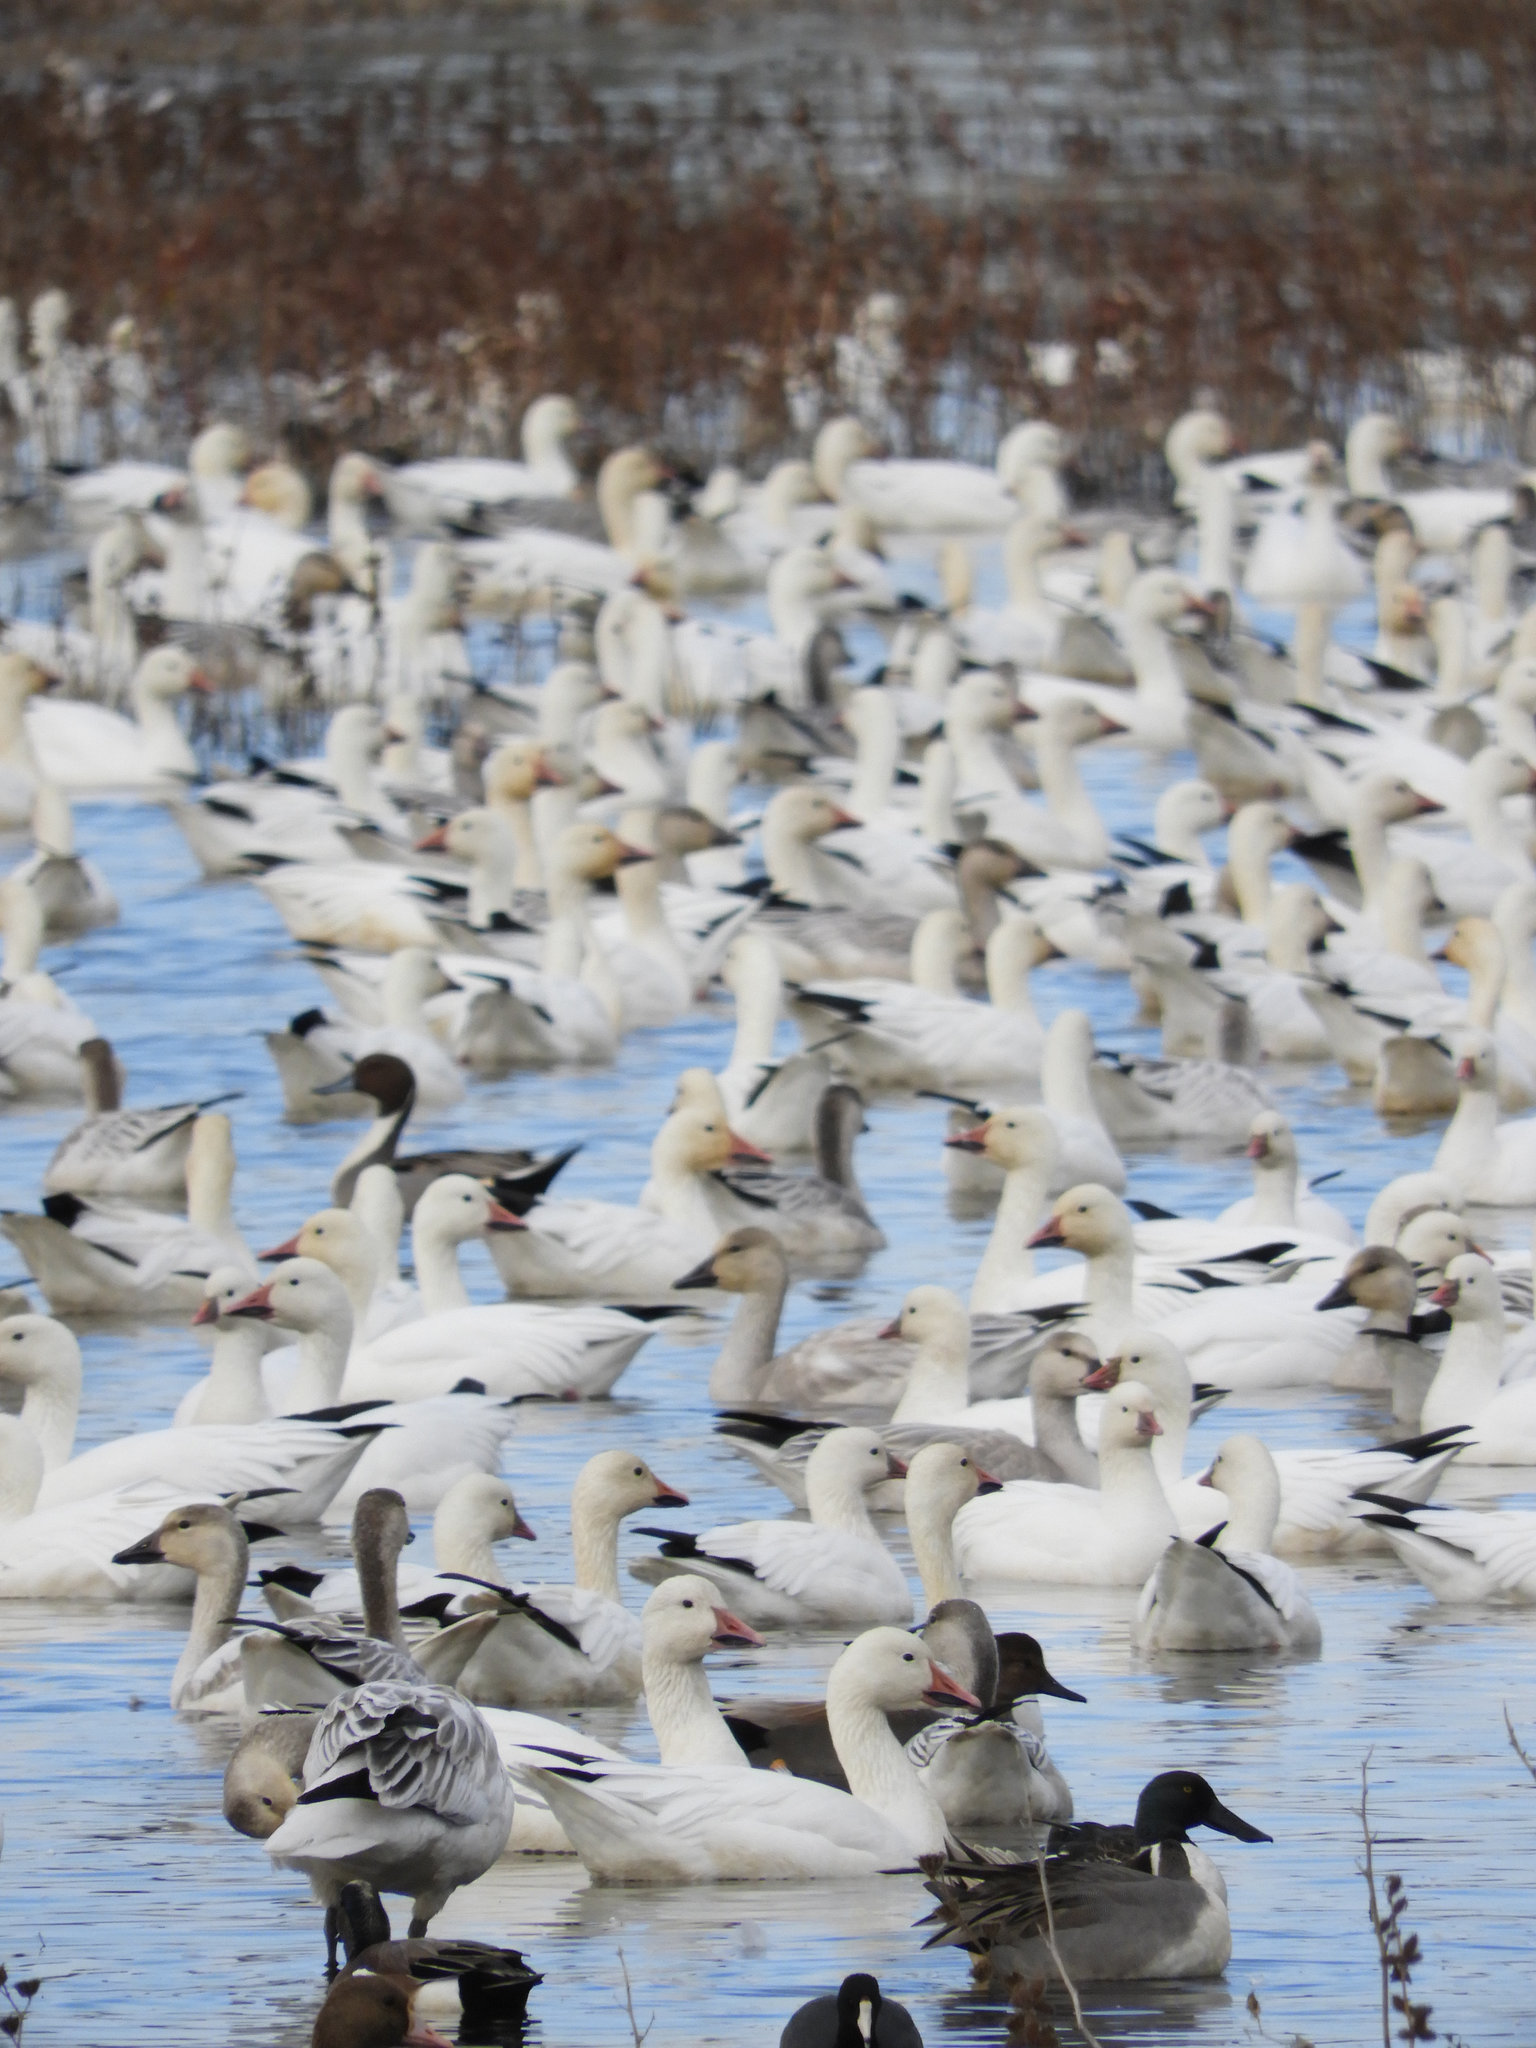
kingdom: Animalia
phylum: Chordata
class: Aves
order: Anseriformes
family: Anatidae
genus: Anser
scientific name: Anser caerulescens
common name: Snow goose
